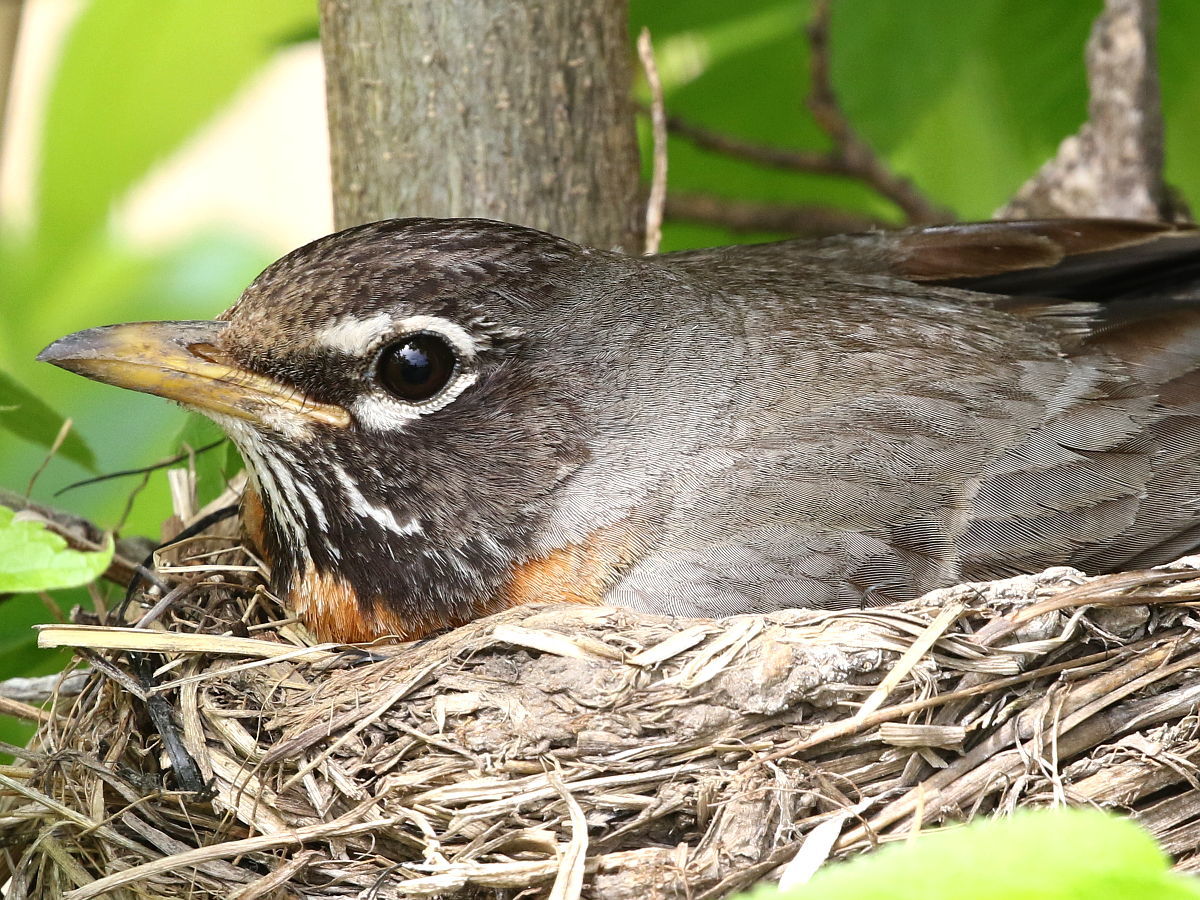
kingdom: Animalia
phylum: Chordata
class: Aves
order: Passeriformes
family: Turdidae
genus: Turdus
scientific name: Turdus migratorius
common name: American robin
